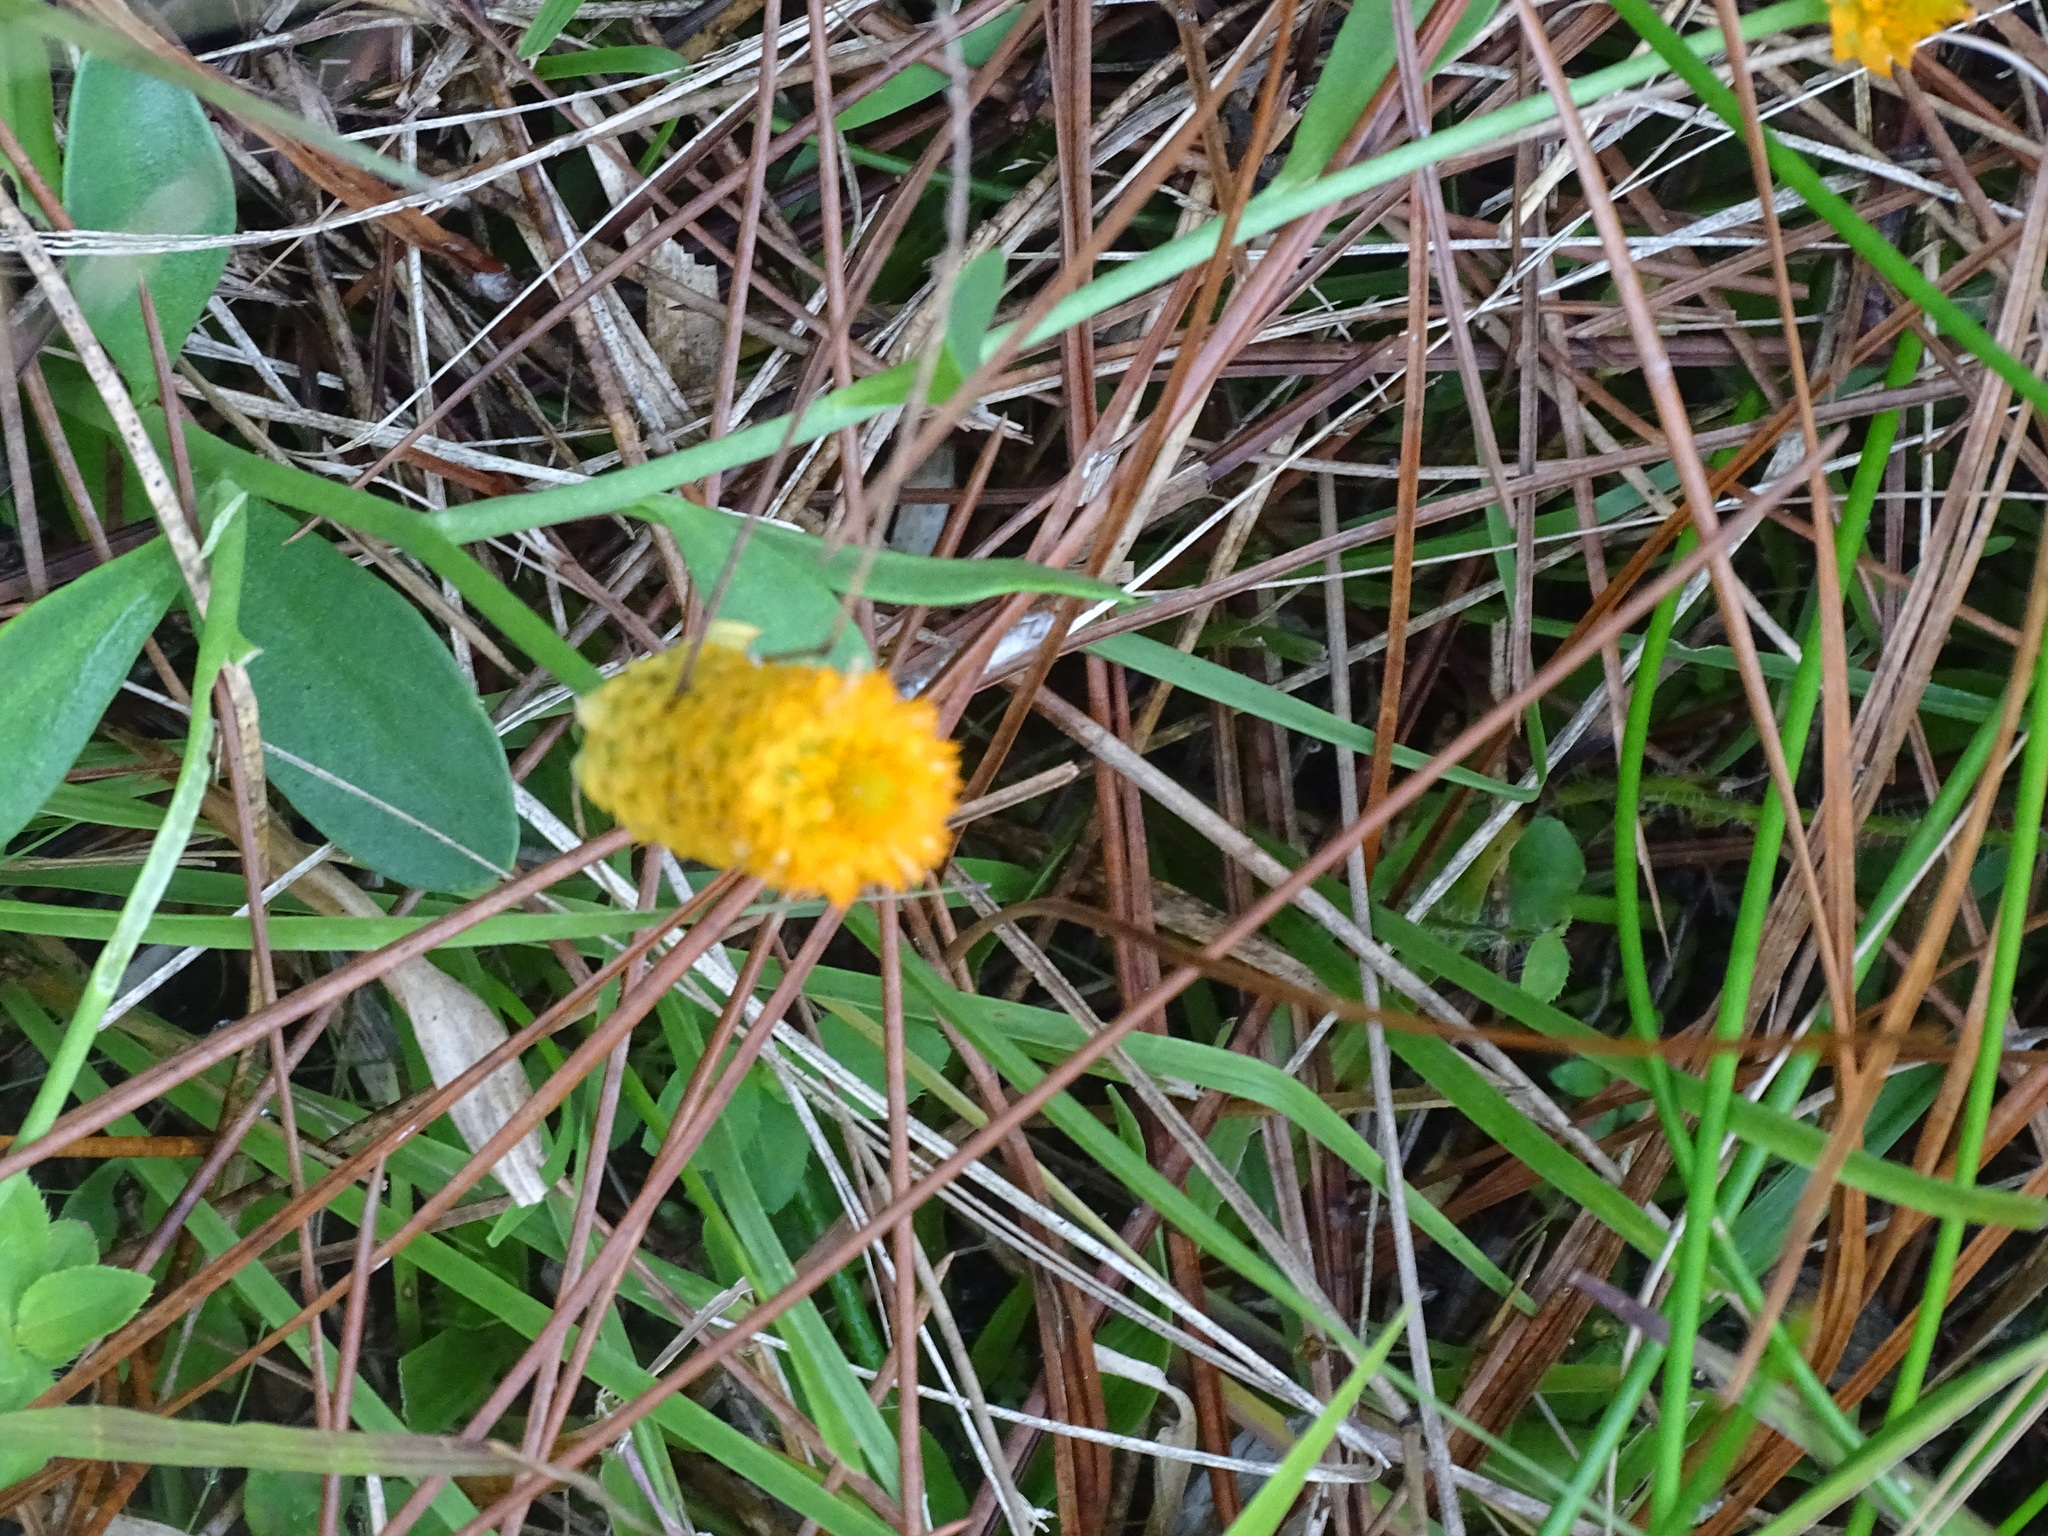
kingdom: Plantae
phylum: Tracheophyta
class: Magnoliopsida
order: Fabales
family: Polygalaceae
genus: Polygala
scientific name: Polygala lutea
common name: Orange milkwort
